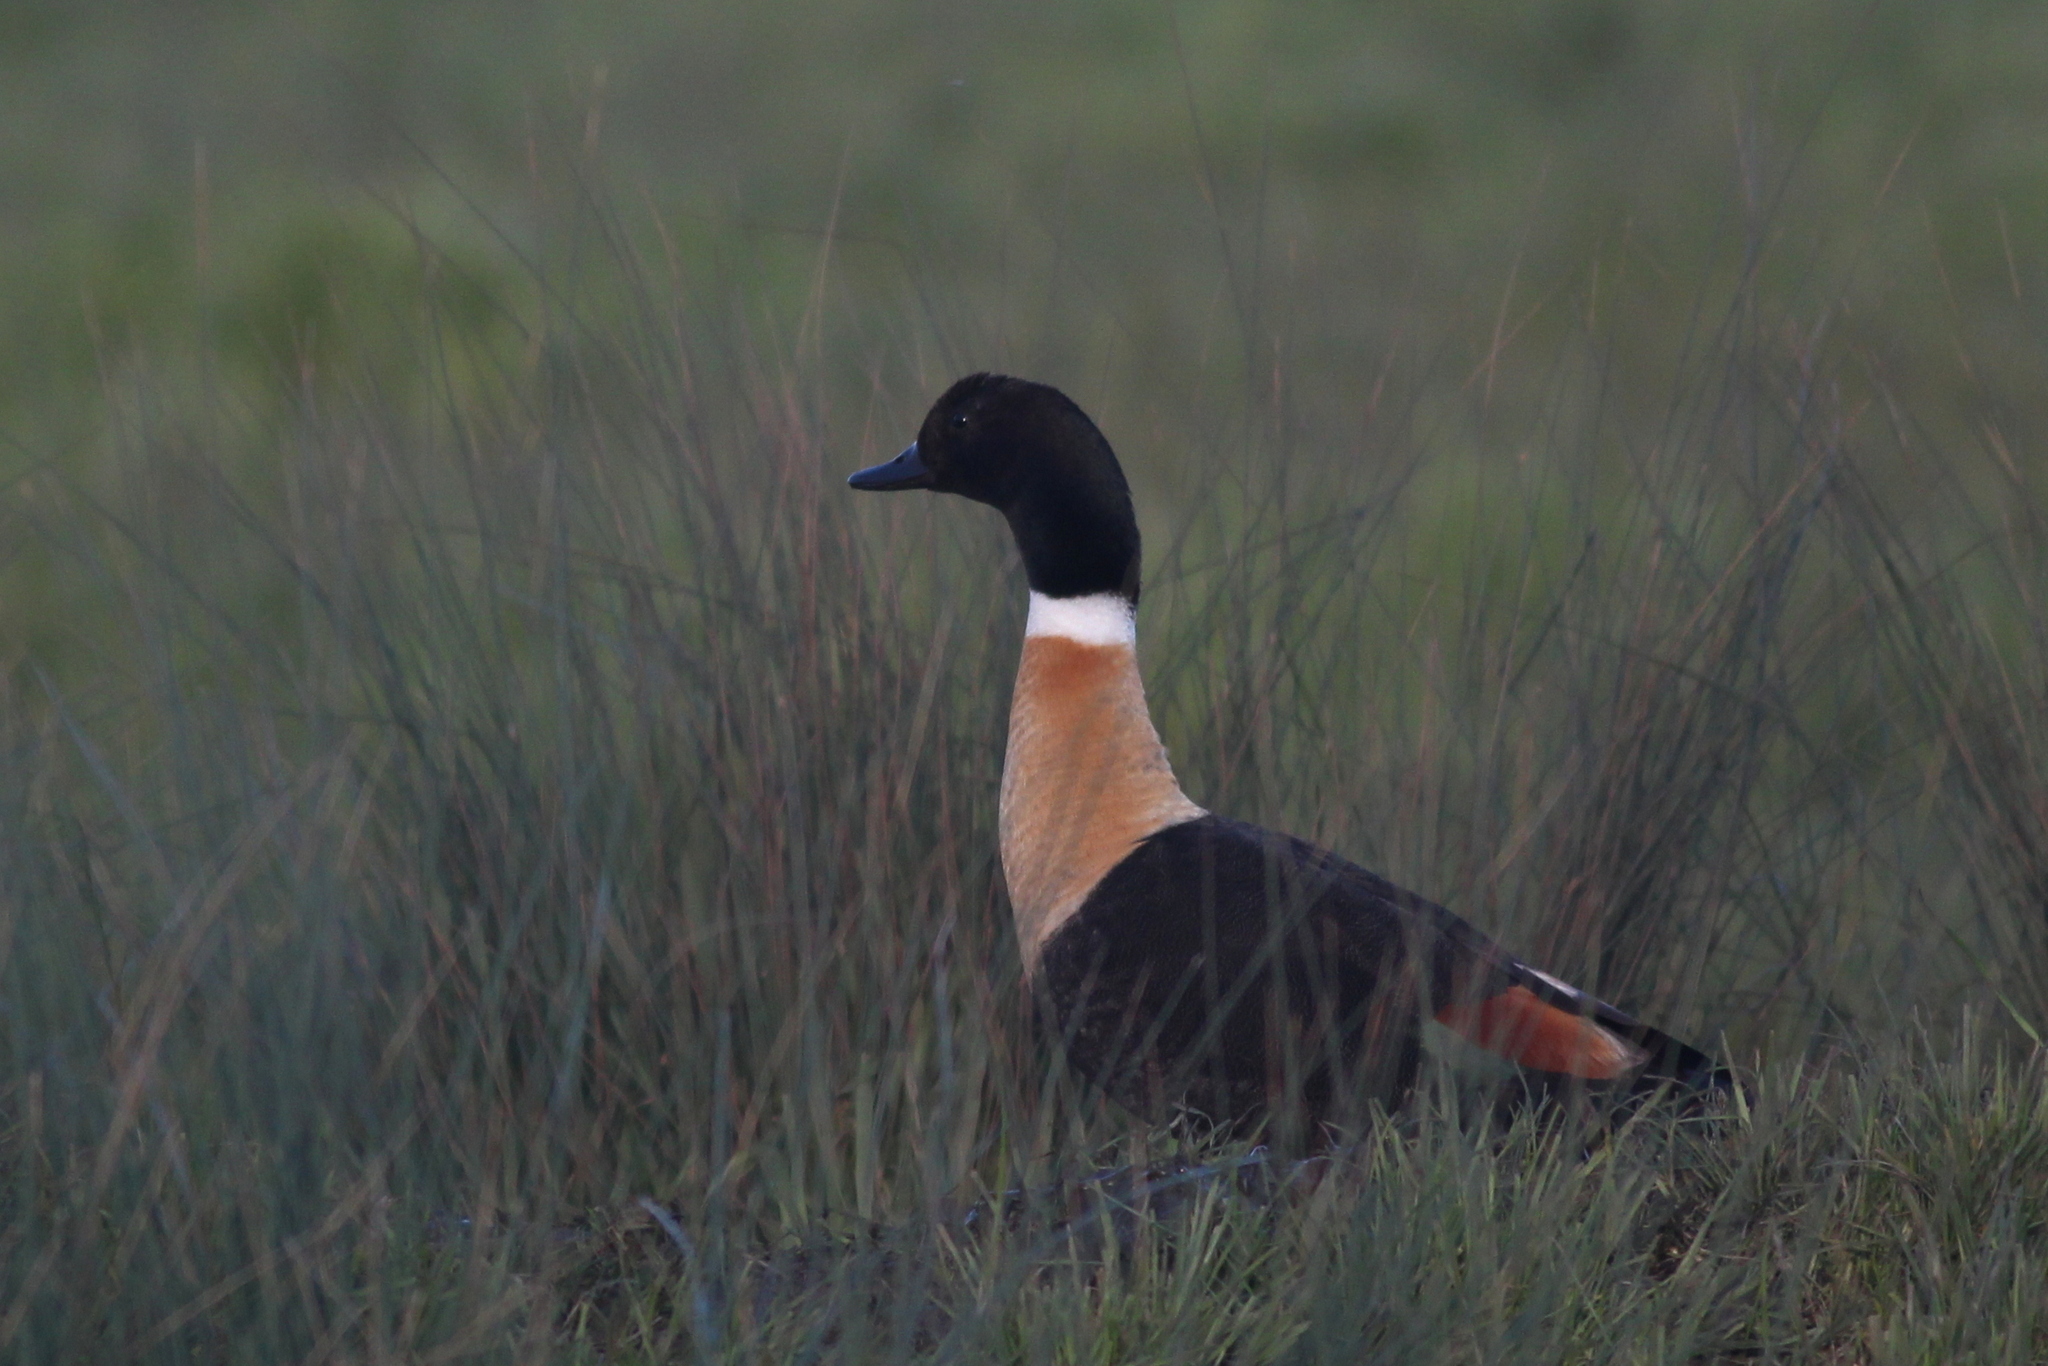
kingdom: Animalia
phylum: Chordata
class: Aves
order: Anseriformes
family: Anatidae
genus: Tadorna
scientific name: Tadorna tadornoides
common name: Australian shelduck
